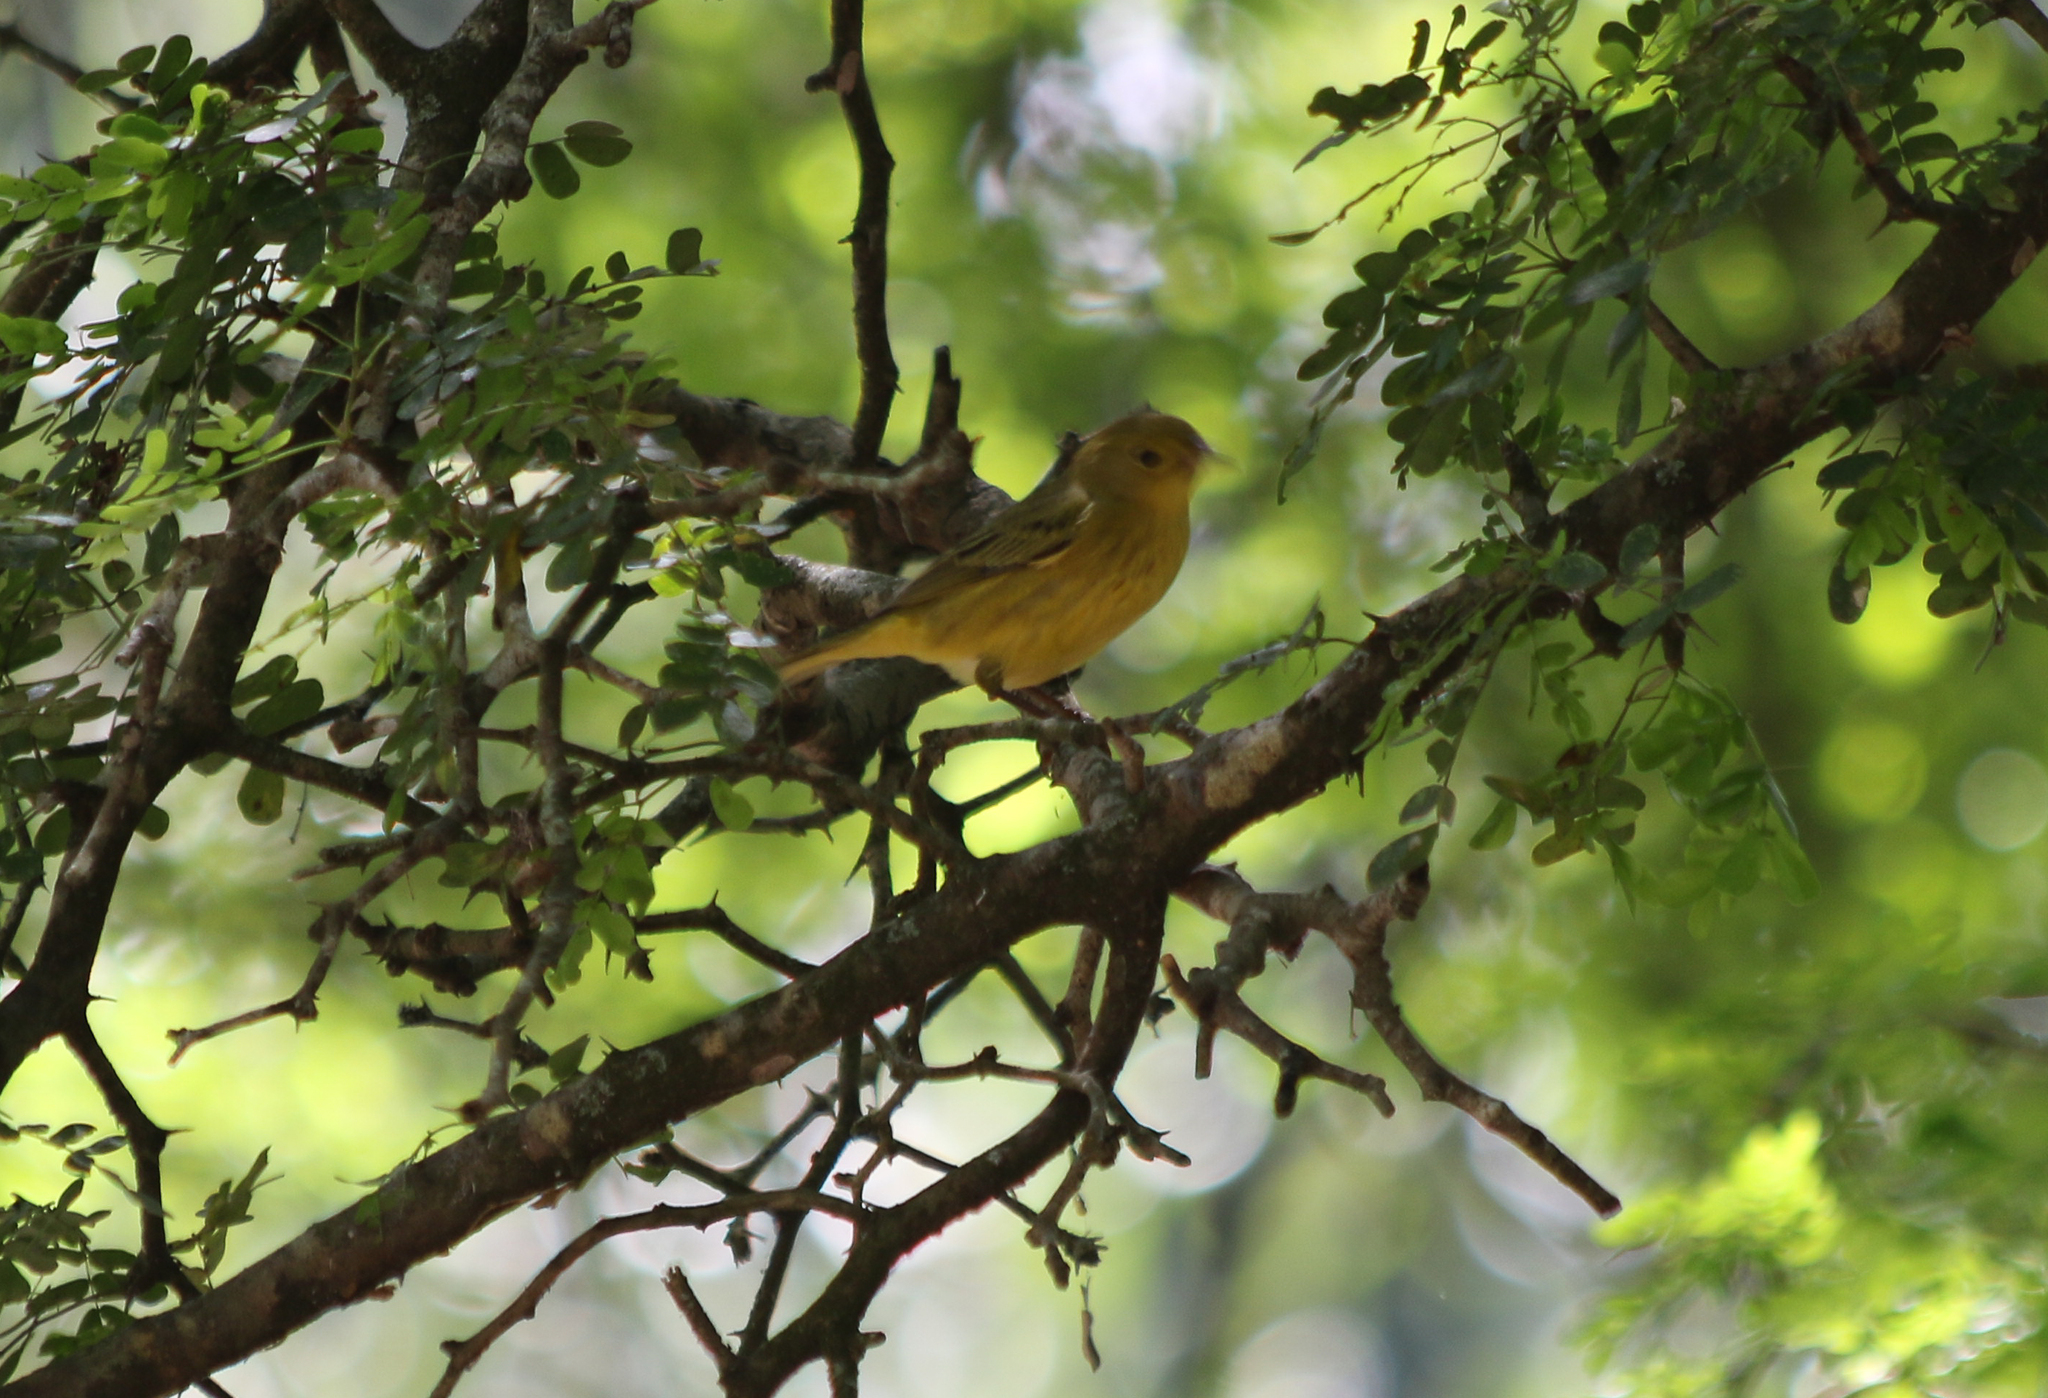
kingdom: Animalia
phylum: Chordata
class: Aves
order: Passeriformes
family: Parulidae
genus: Setophaga
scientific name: Setophaga petechia
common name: Yellow warbler
